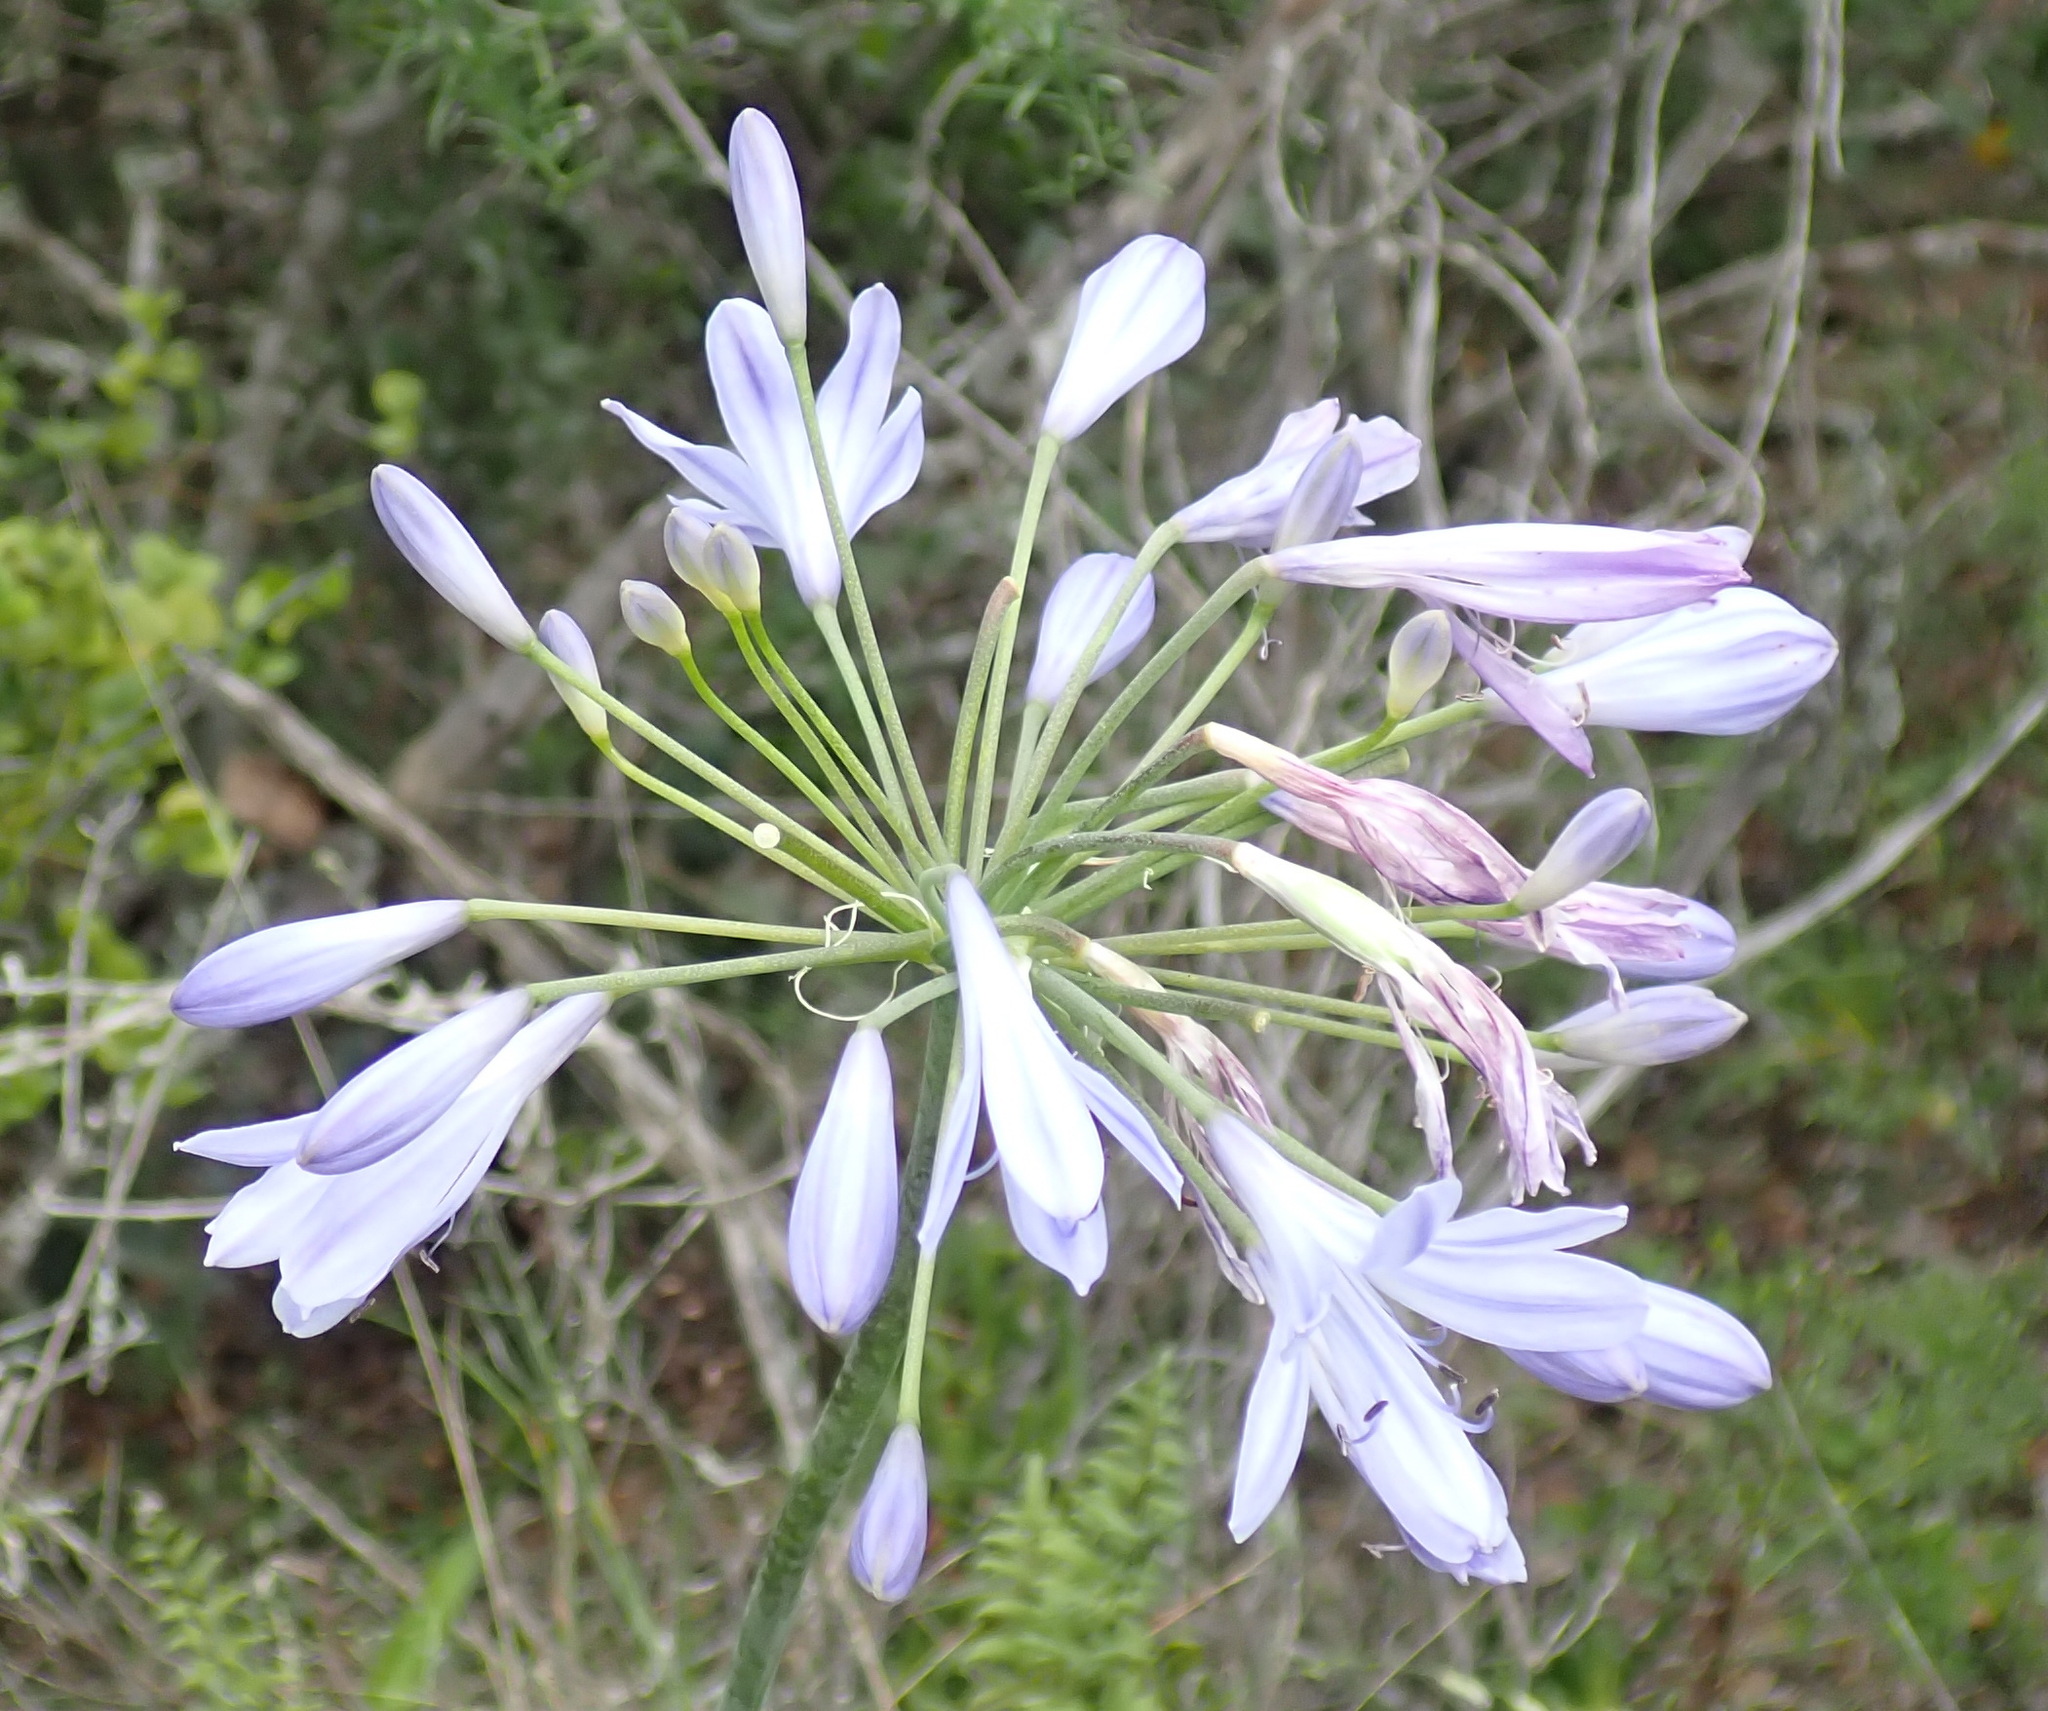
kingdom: Plantae
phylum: Tracheophyta
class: Liliopsida
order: Asparagales
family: Amaryllidaceae
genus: Agapanthus
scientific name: Agapanthus praecox
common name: African-lily
